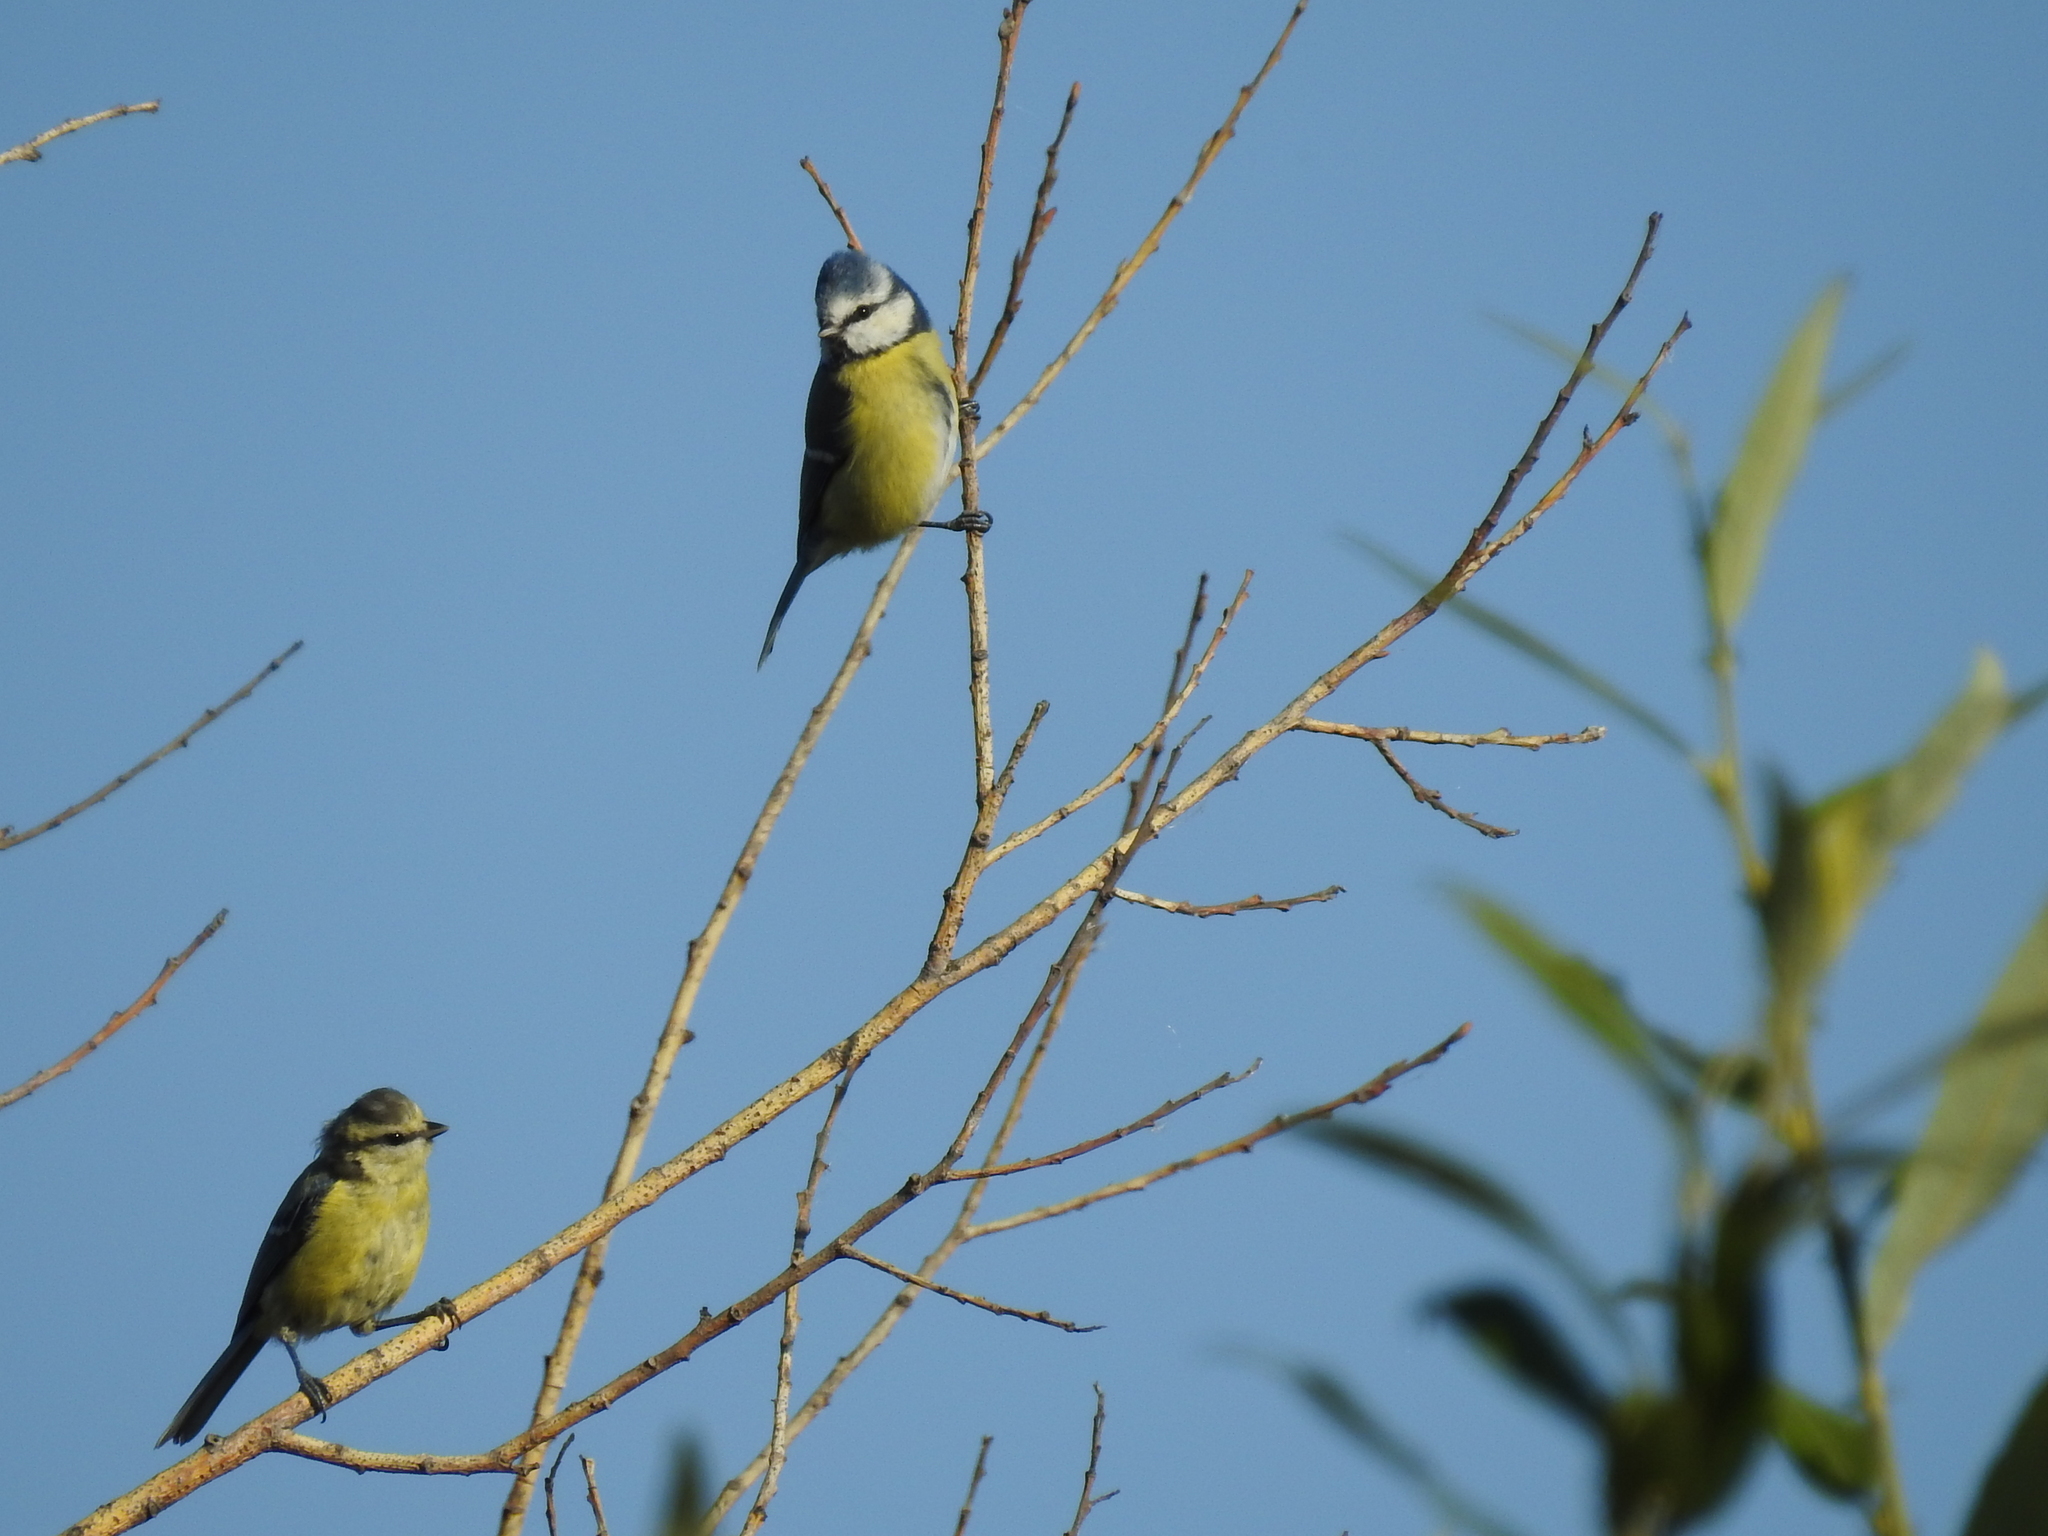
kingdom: Animalia
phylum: Chordata
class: Aves
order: Passeriformes
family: Paridae
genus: Cyanistes
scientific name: Cyanistes caeruleus
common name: Eurasian blue tit
